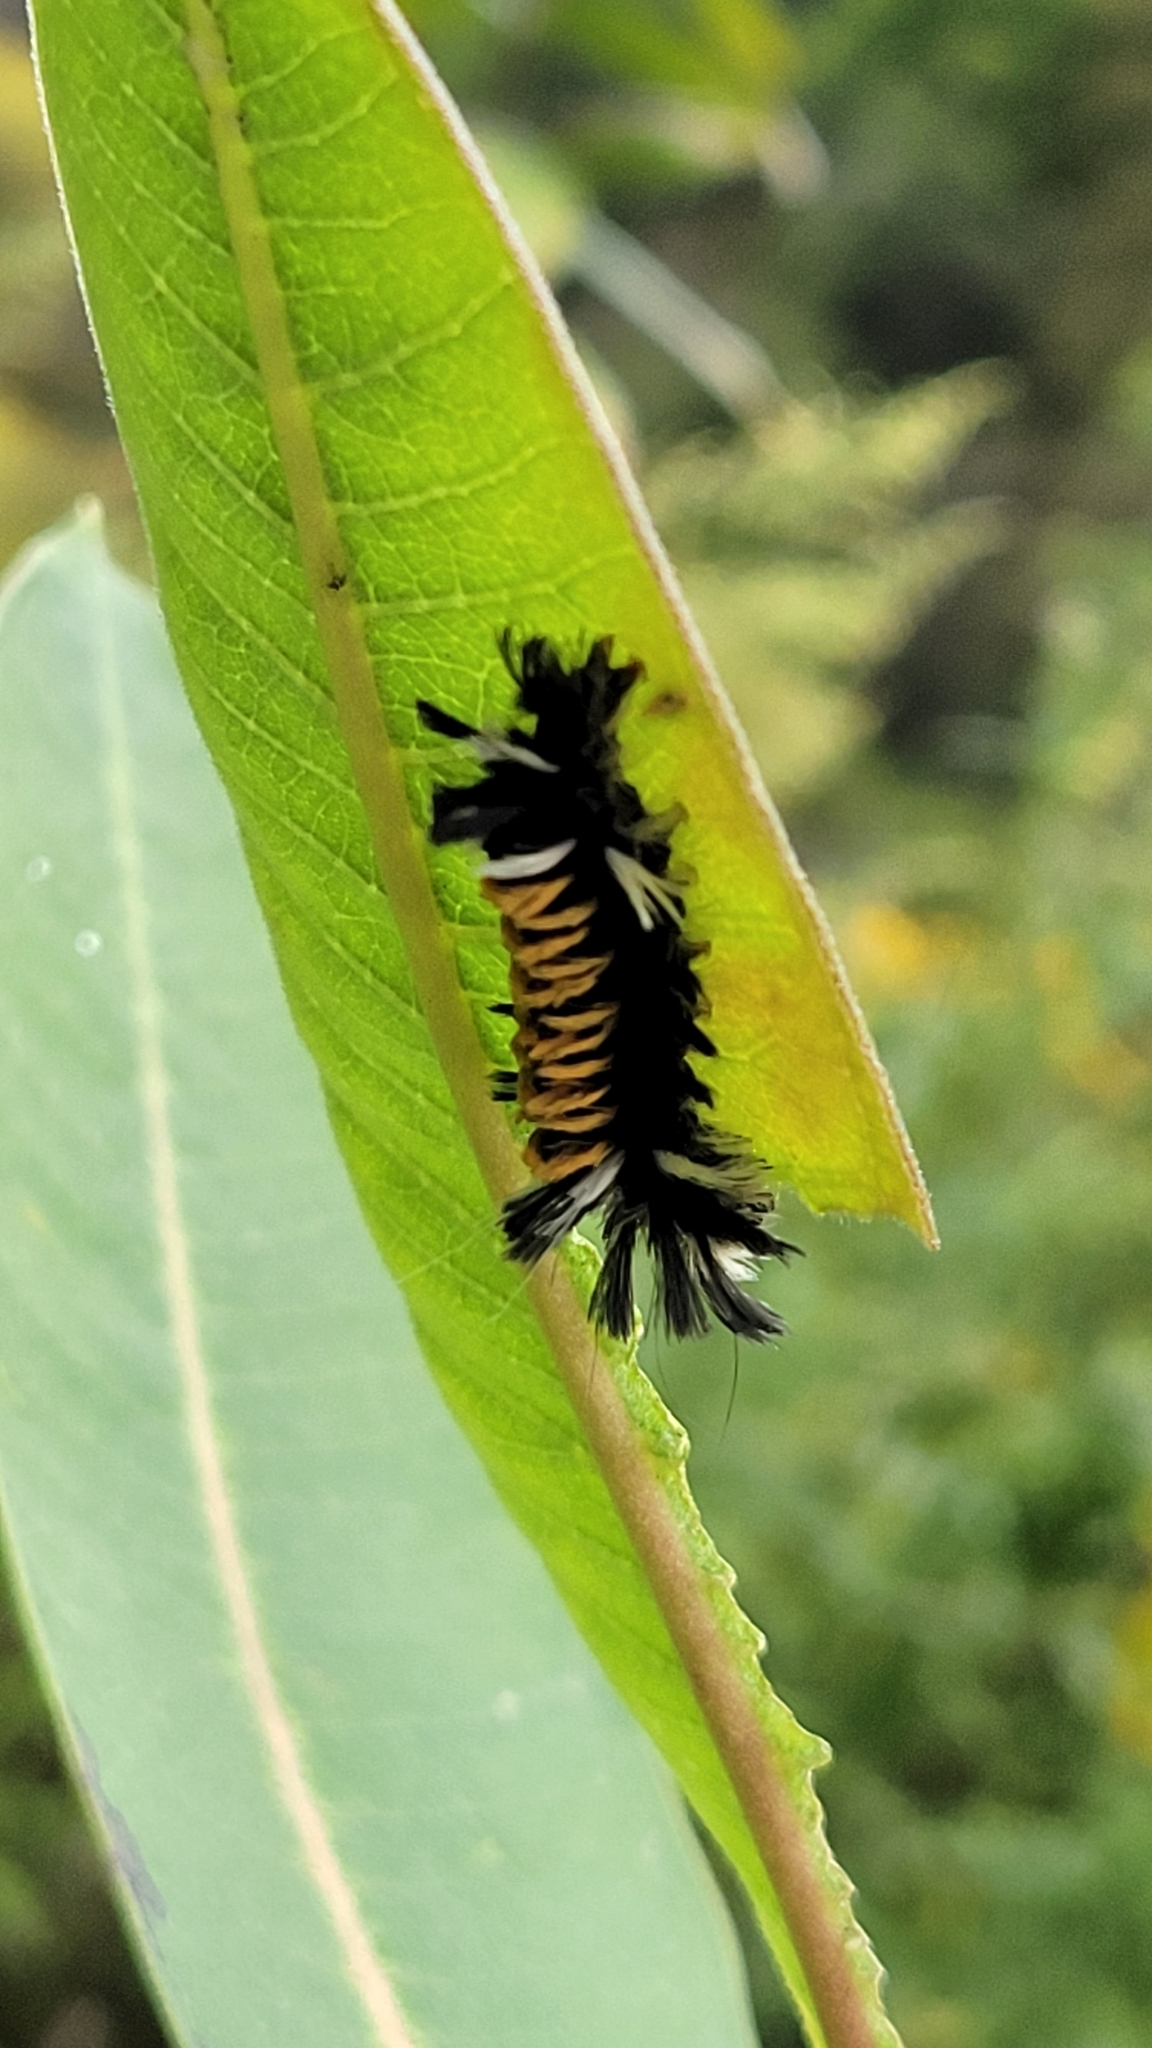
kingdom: Animalia
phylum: Arthropoda
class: Insecta
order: Lepidoptera
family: Erebidae
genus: Euchaetes
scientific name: Euchaetes egle
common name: Milkweed tussock moth
